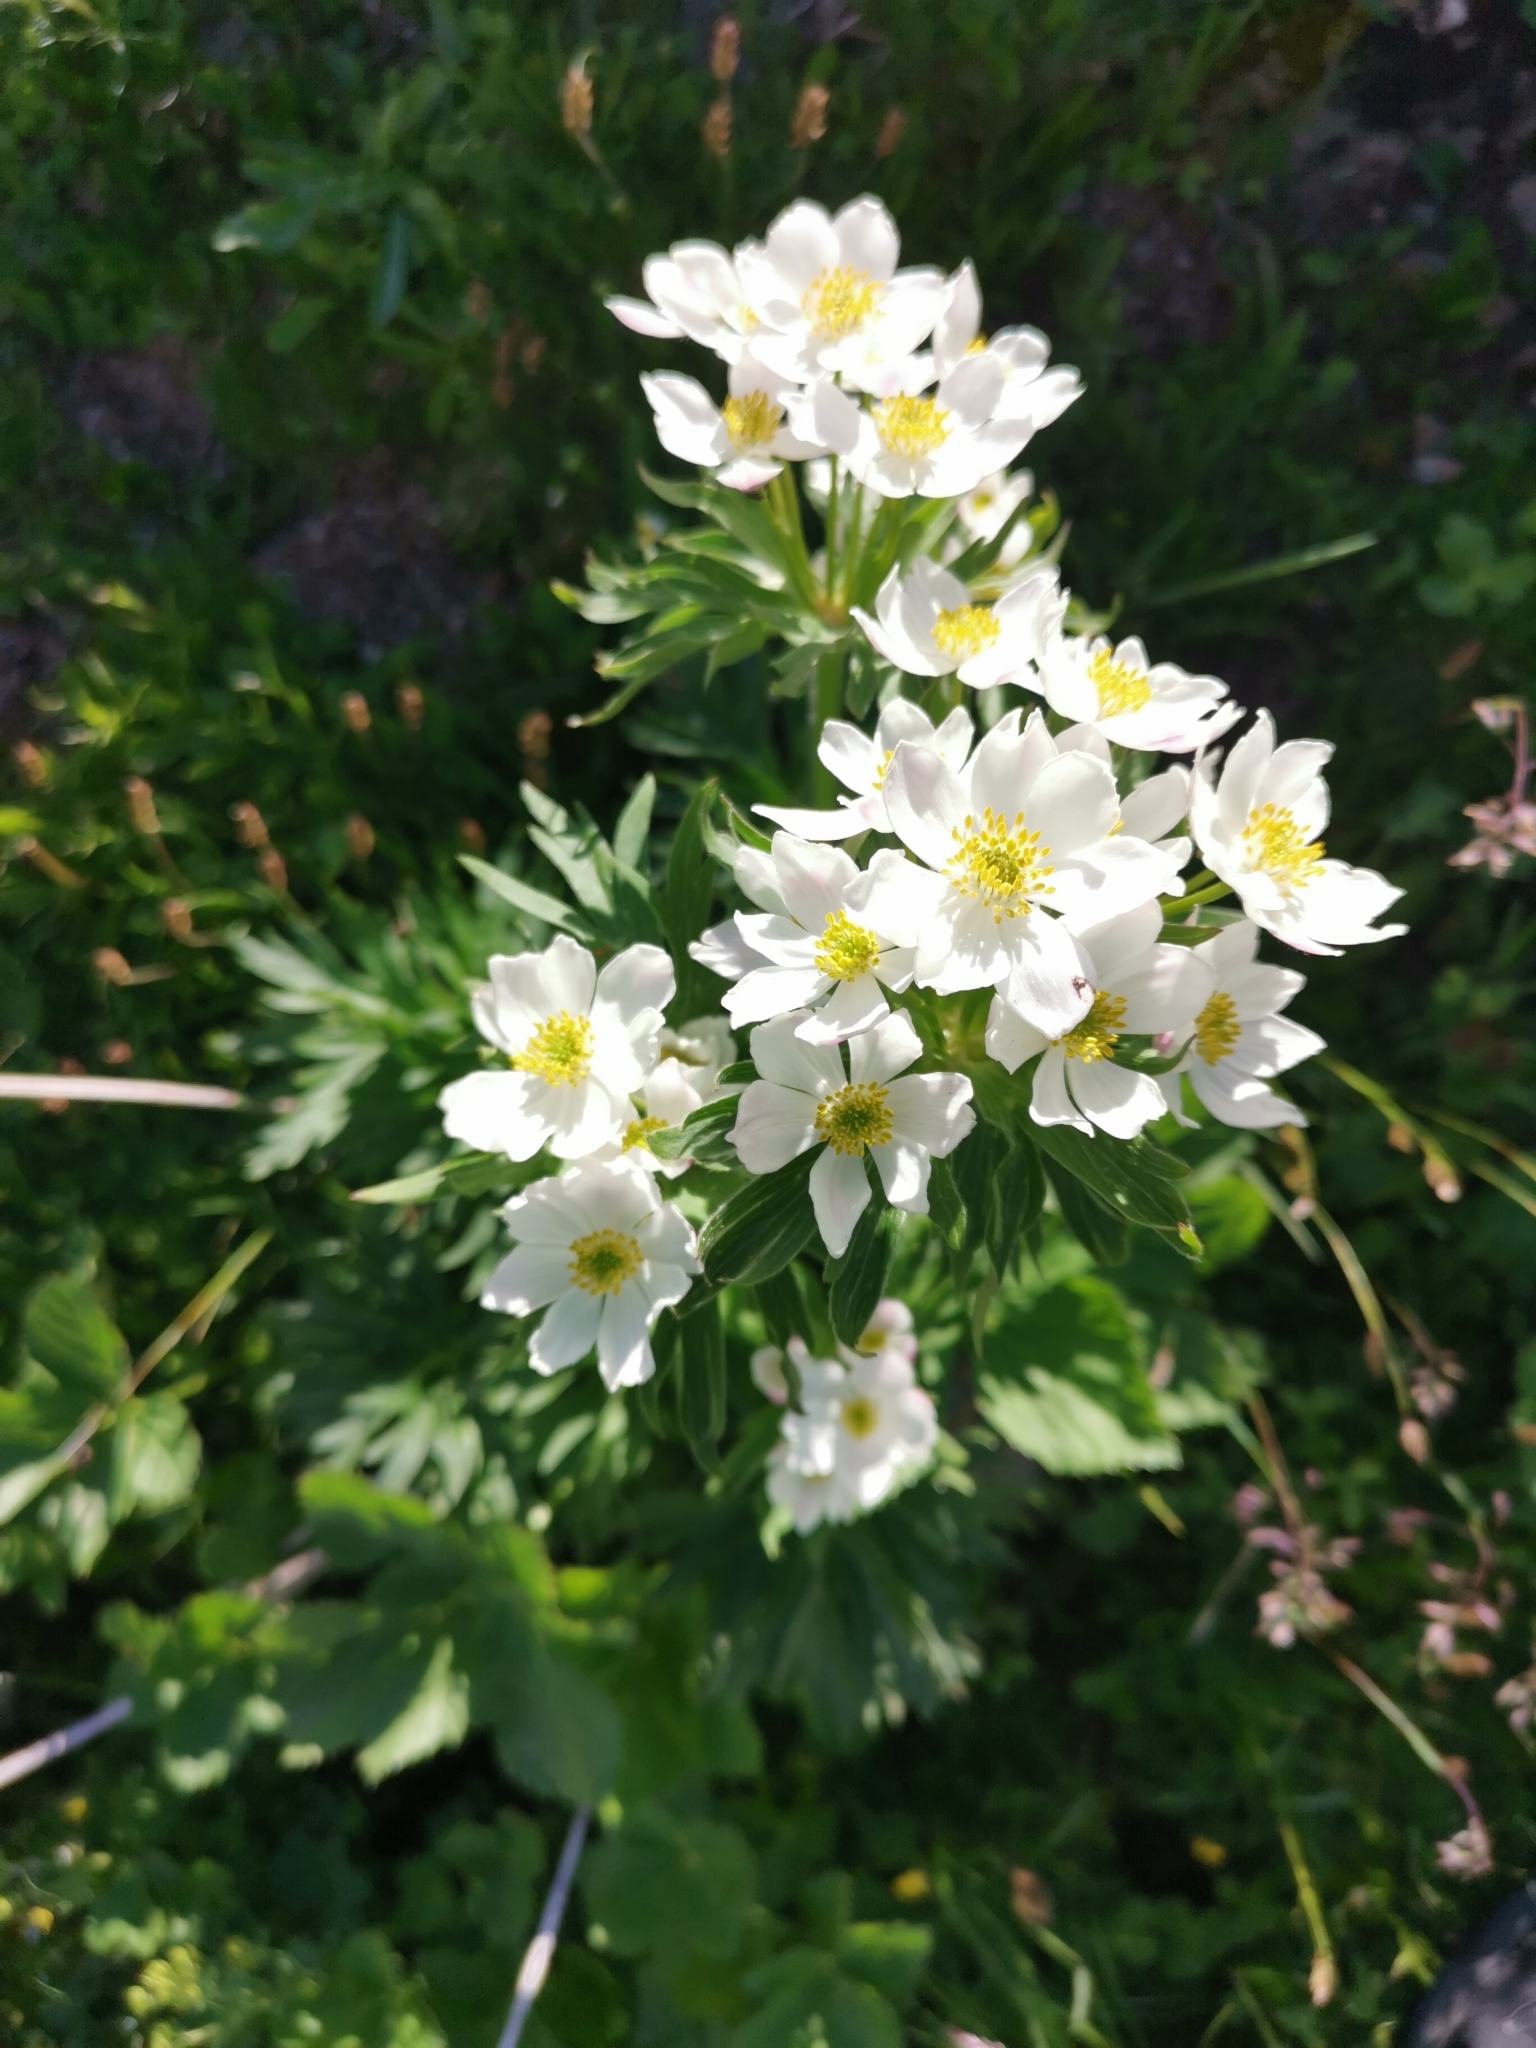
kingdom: Plantae
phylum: Tracheophyta
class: Magnoliopsida
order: Ranunculales
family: Ranunculaceae
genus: Anemonastrum
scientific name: Anemonastrum narcissiflorum
